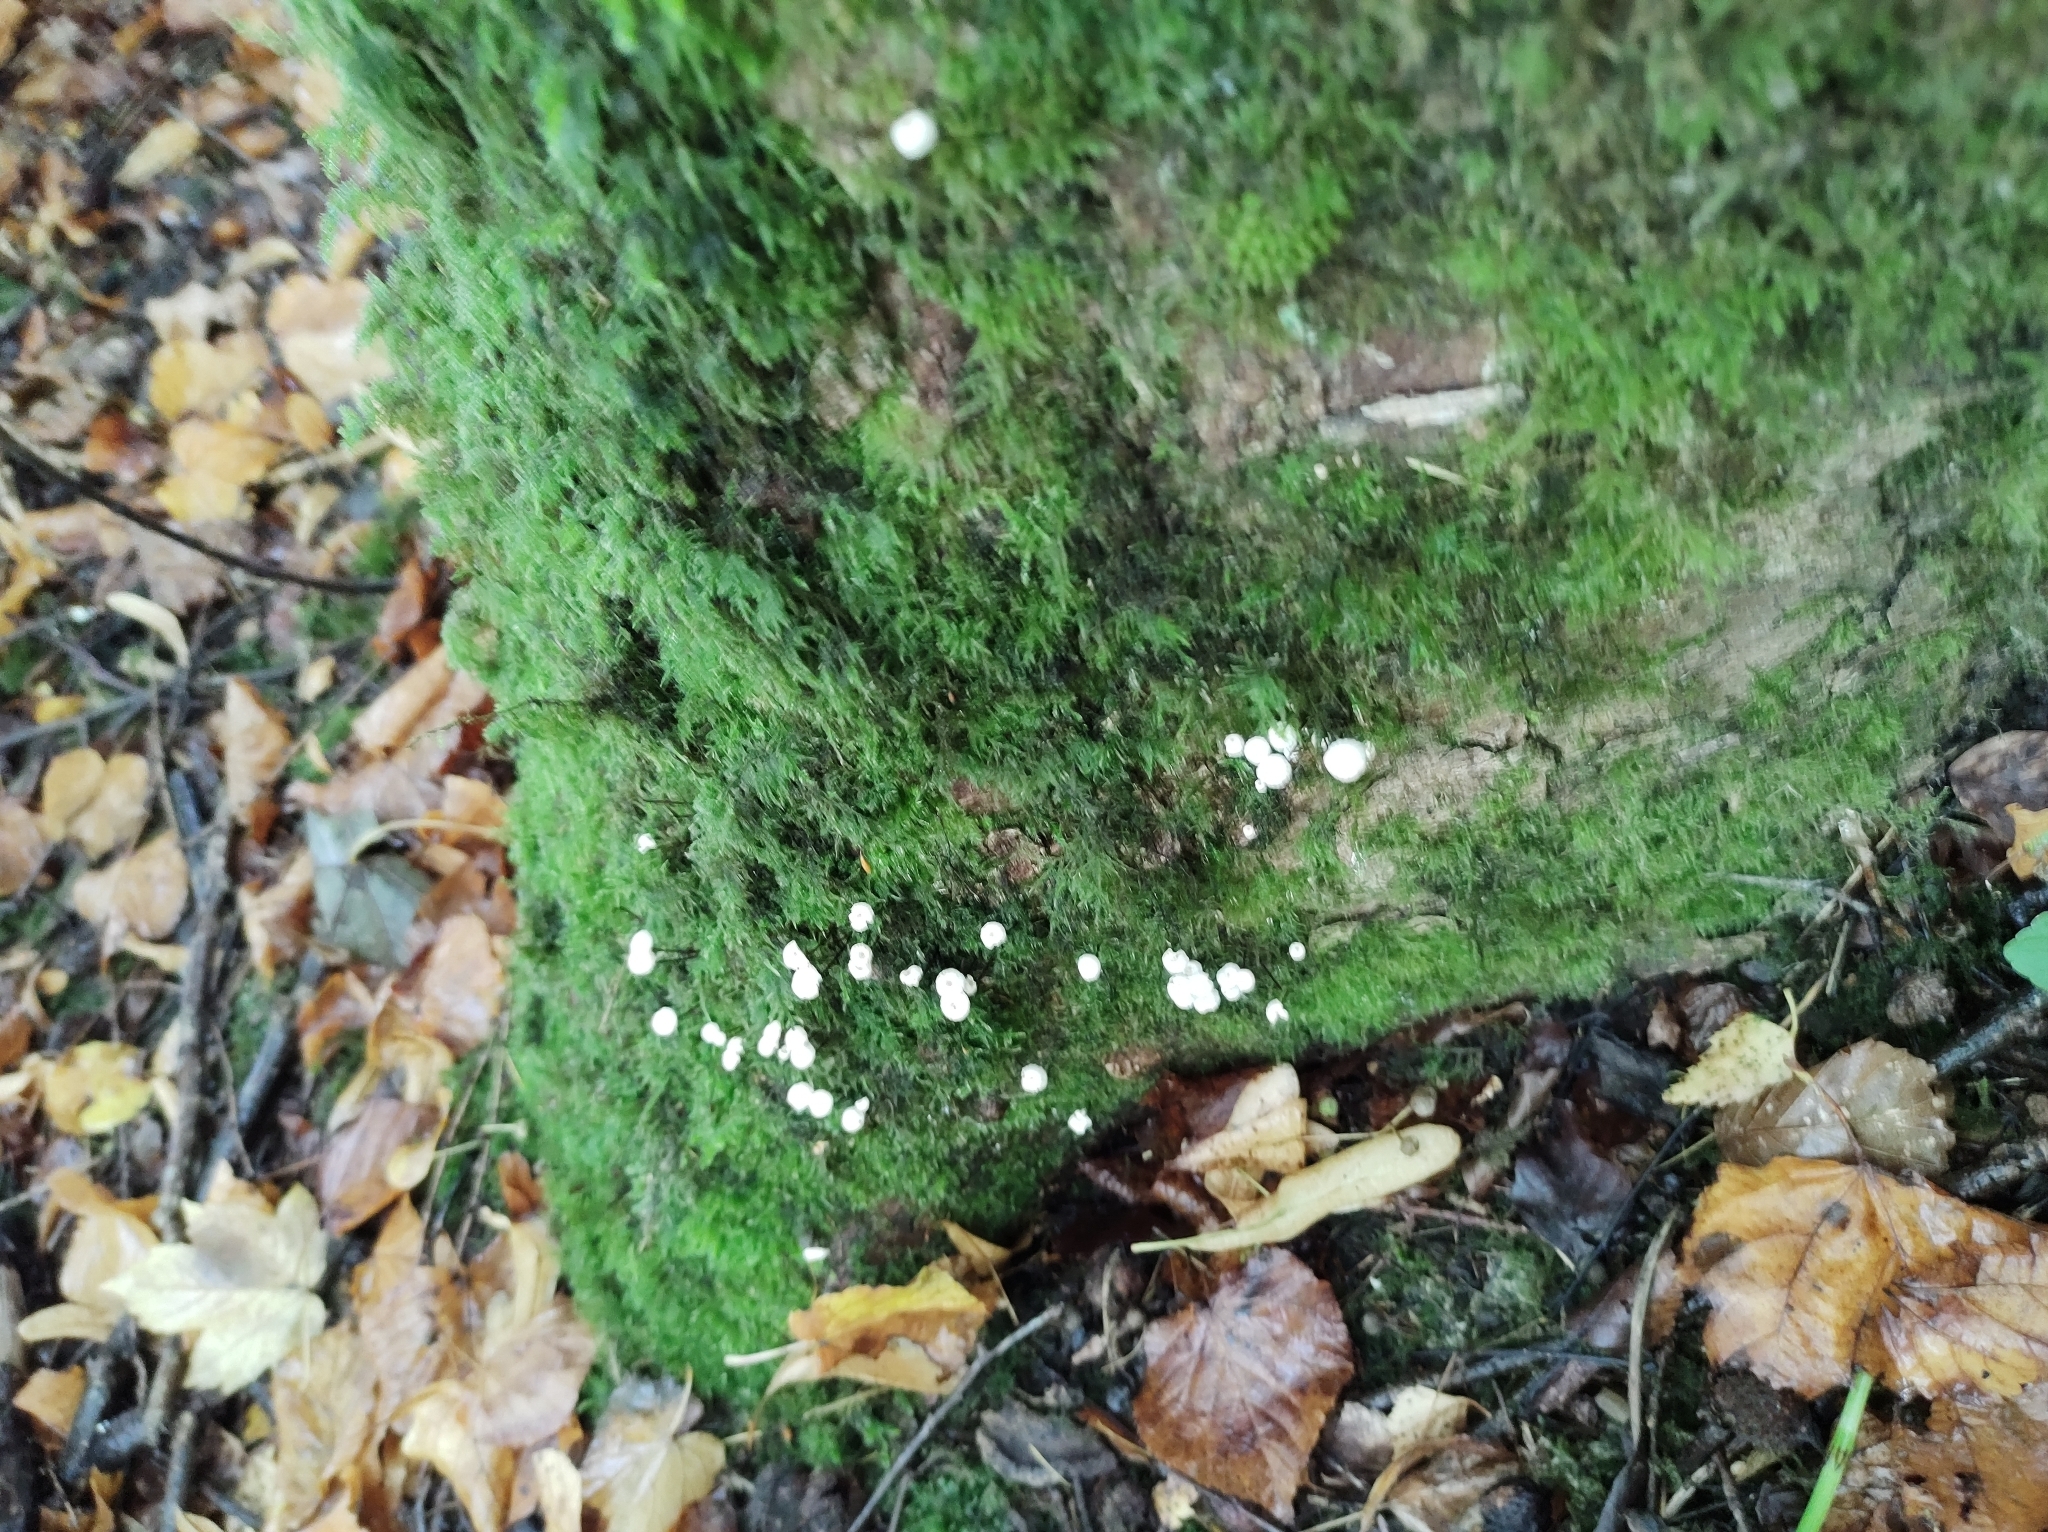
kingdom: Fungi
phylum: Basidiomycota
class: Agaricomycetes
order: Agaricales
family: Marasmiaceae
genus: Marasmius
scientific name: Marasmius rotula
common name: Collared parachute
